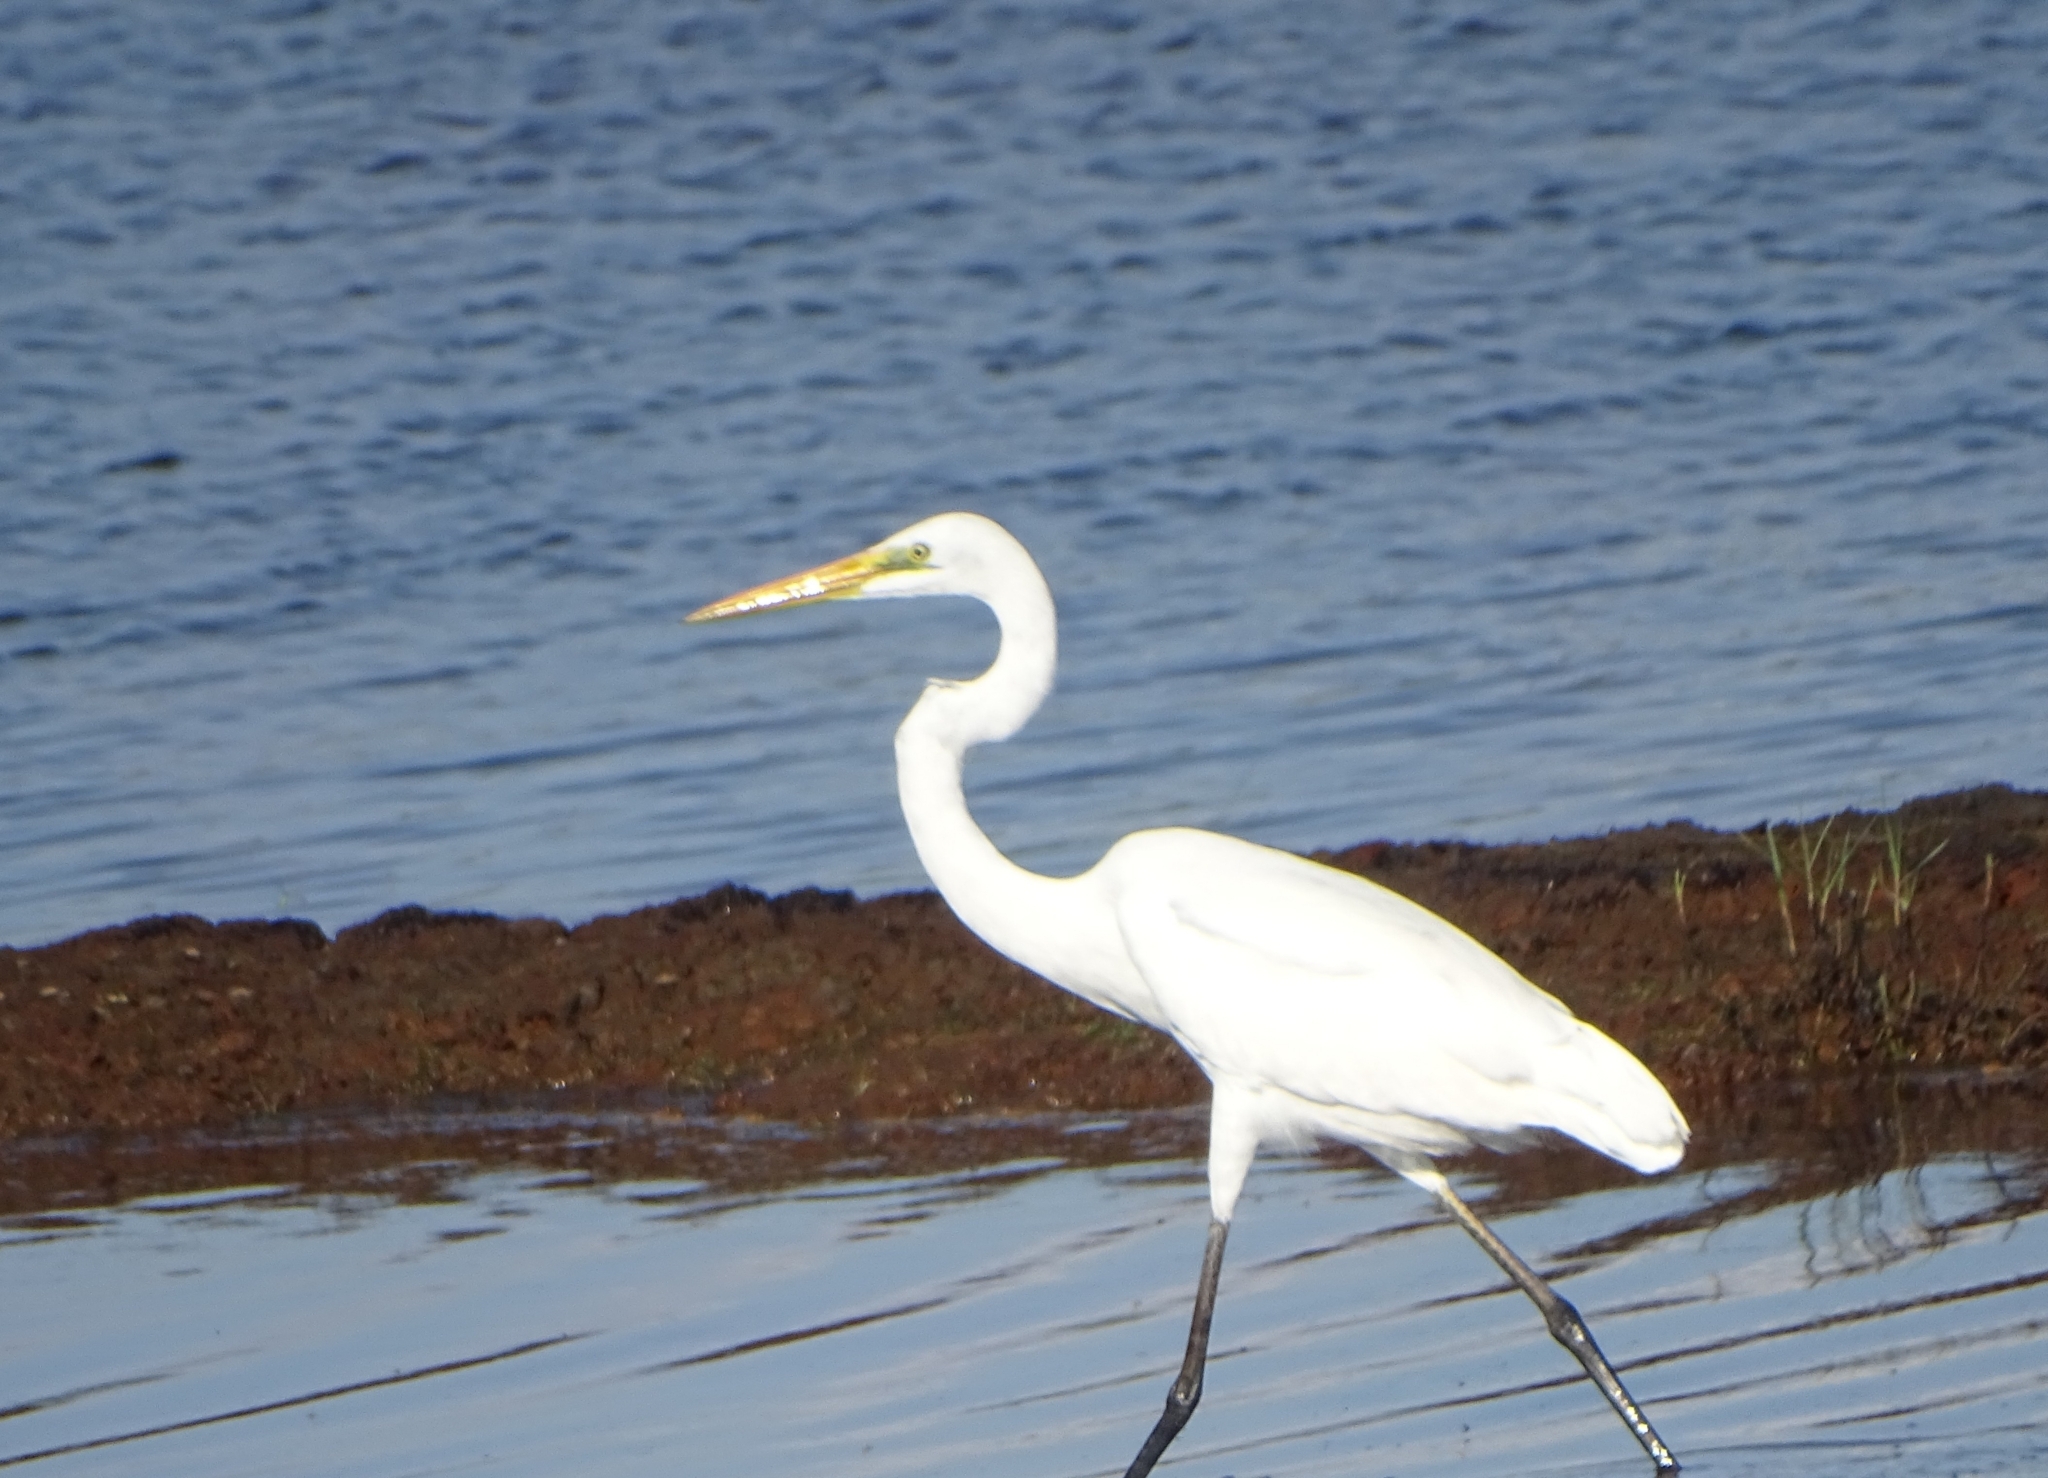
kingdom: Animalia
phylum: Chordata
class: Aves
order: Pelecaniformes
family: Ardeidae
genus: Ardea
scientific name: Ardea alba
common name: Great egret
